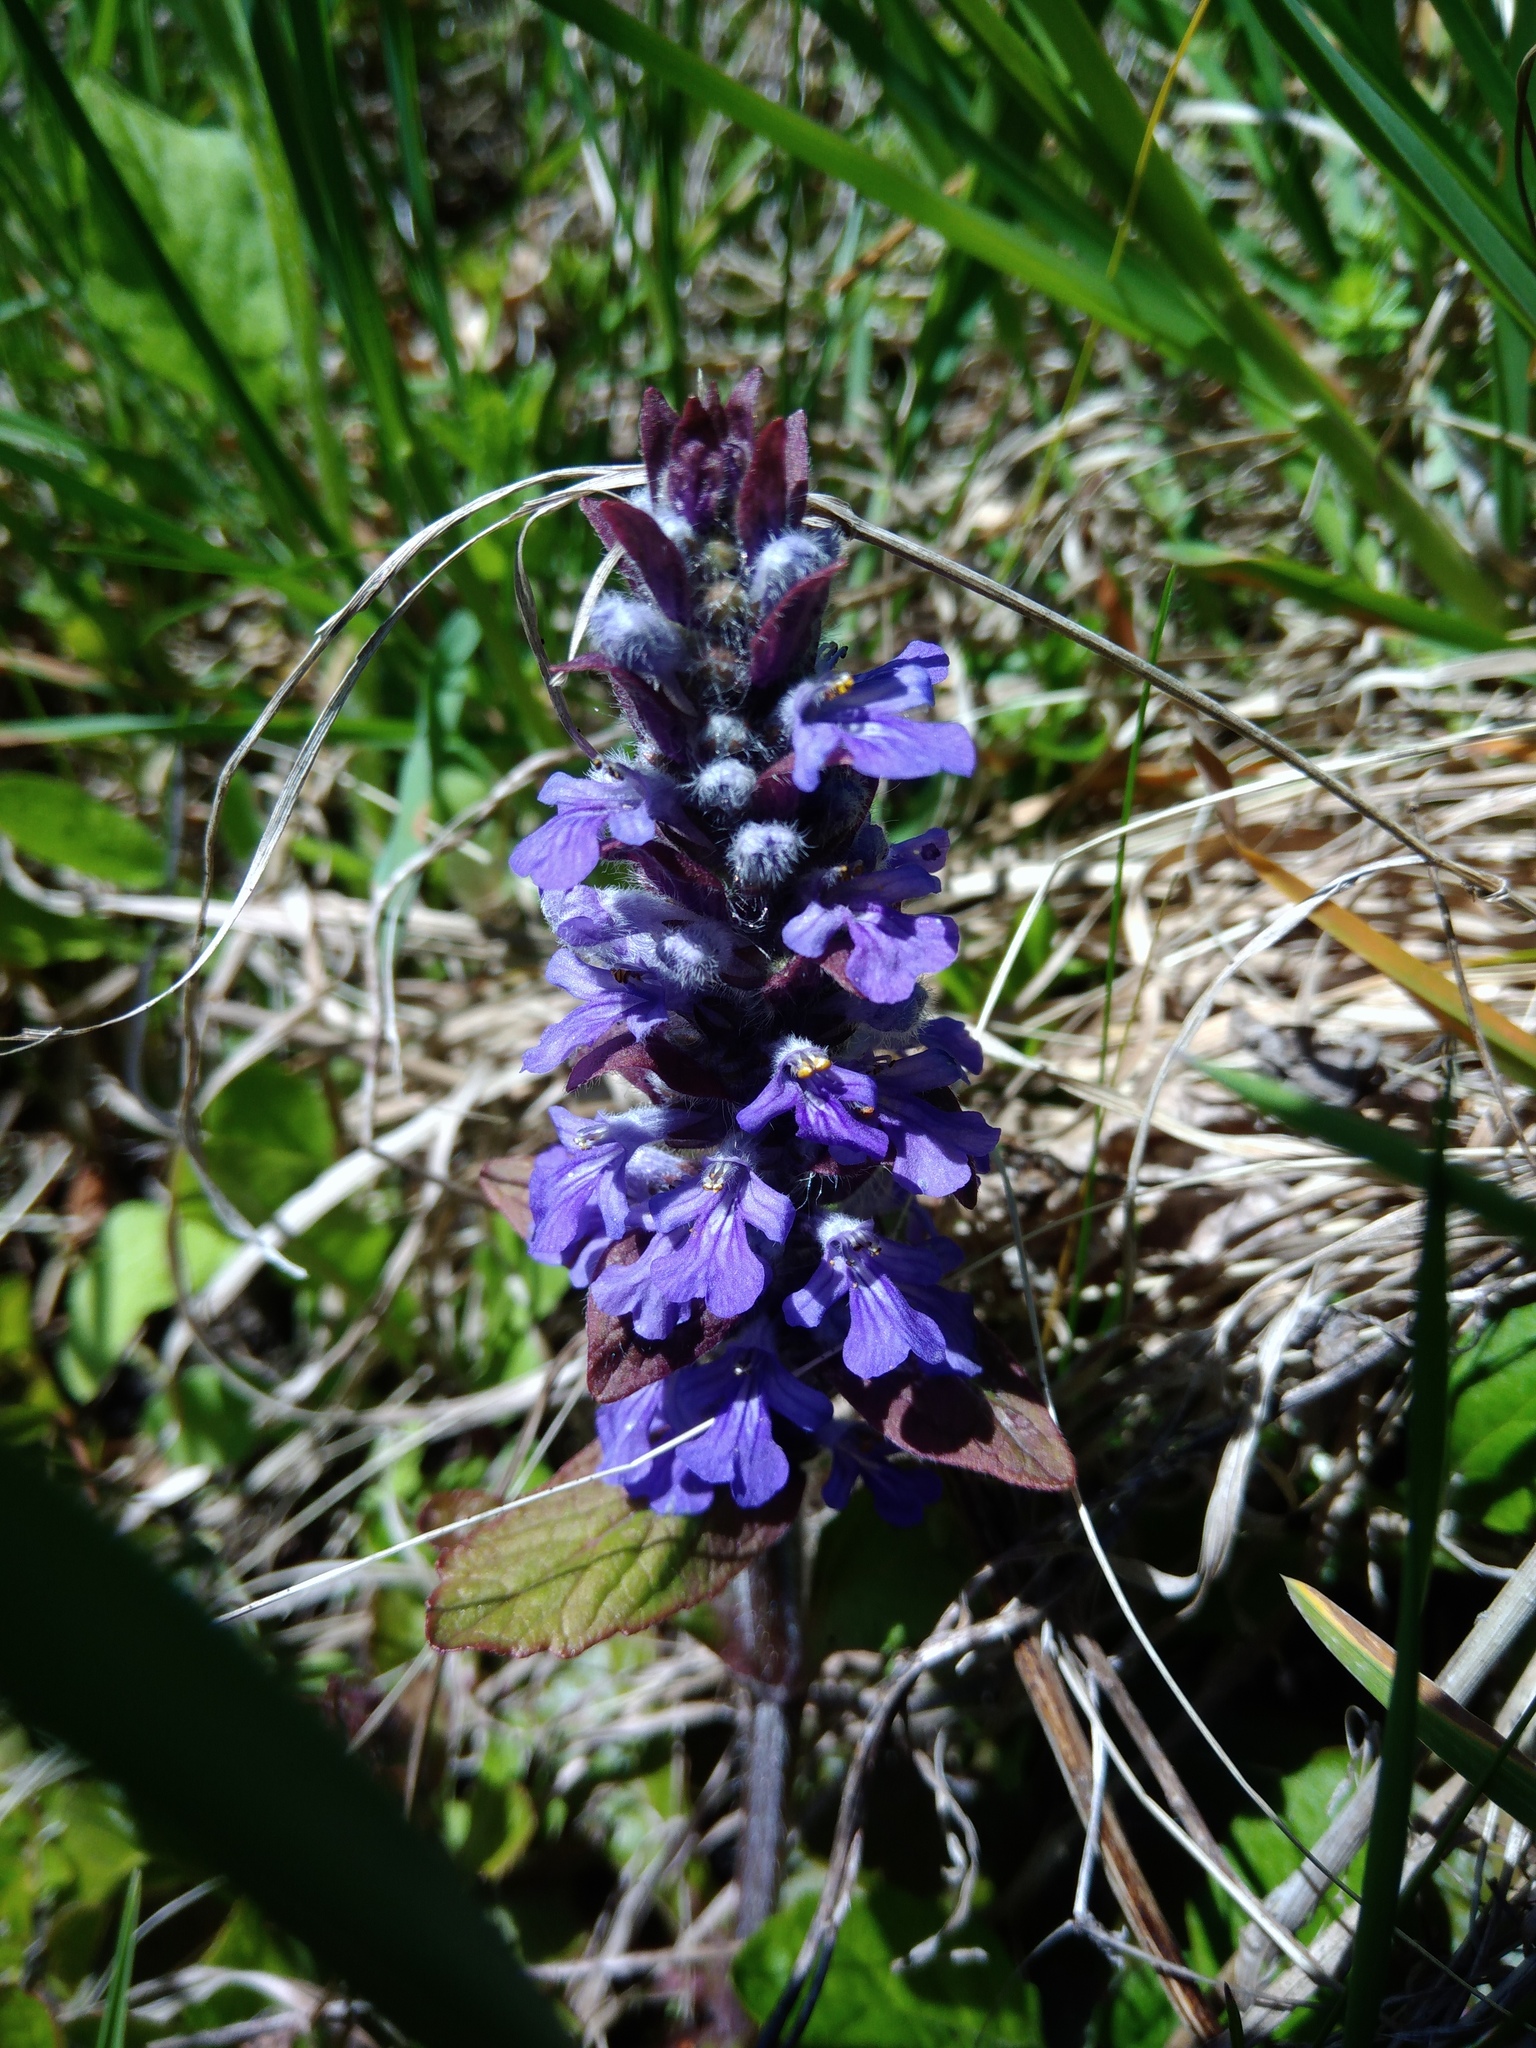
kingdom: Plantae
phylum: Tracheophyta
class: Magnoliopsida
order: Lamiales
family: Lamiaceae
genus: Ajuga
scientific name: Ajuga reptans
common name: Bugle
